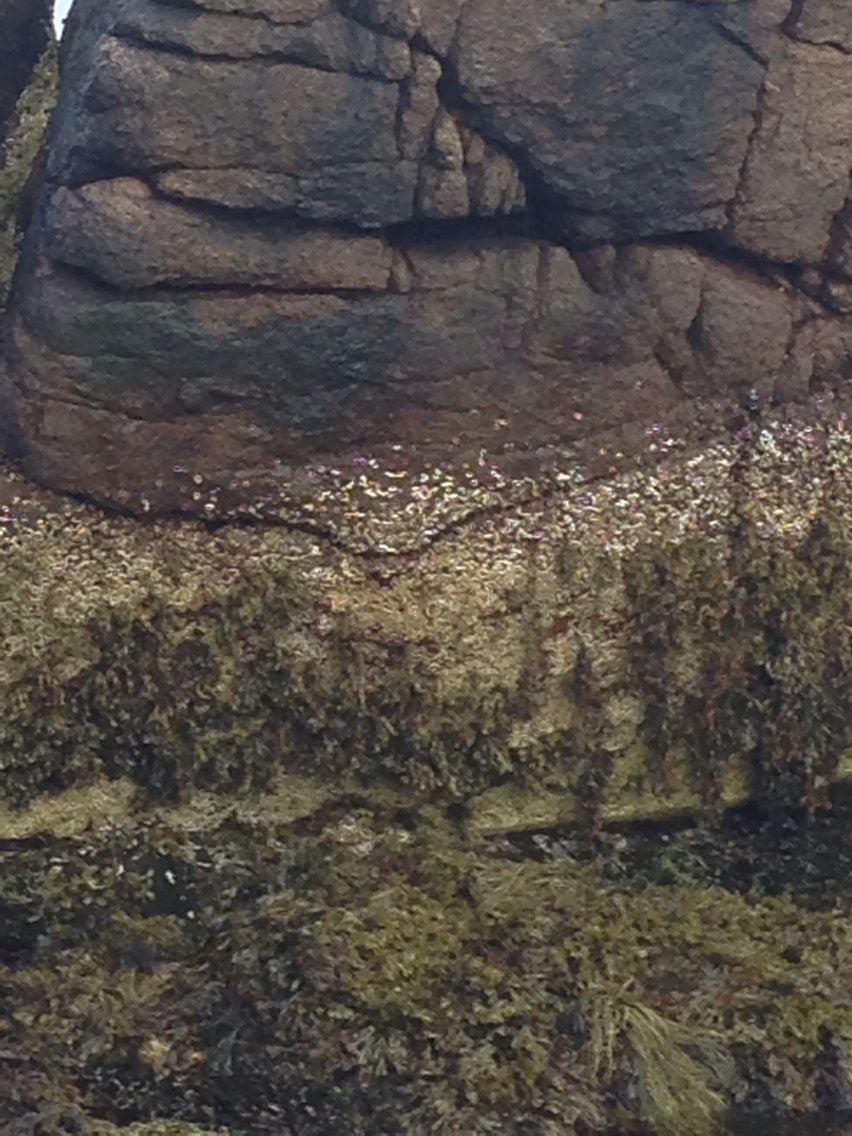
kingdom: Animalia
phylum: Arthropoda
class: Maxillopoda
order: Sessilia
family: Archaeobalanidae
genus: Semibalanus
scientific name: Semibalanus balanoides
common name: Acorn barnacle
